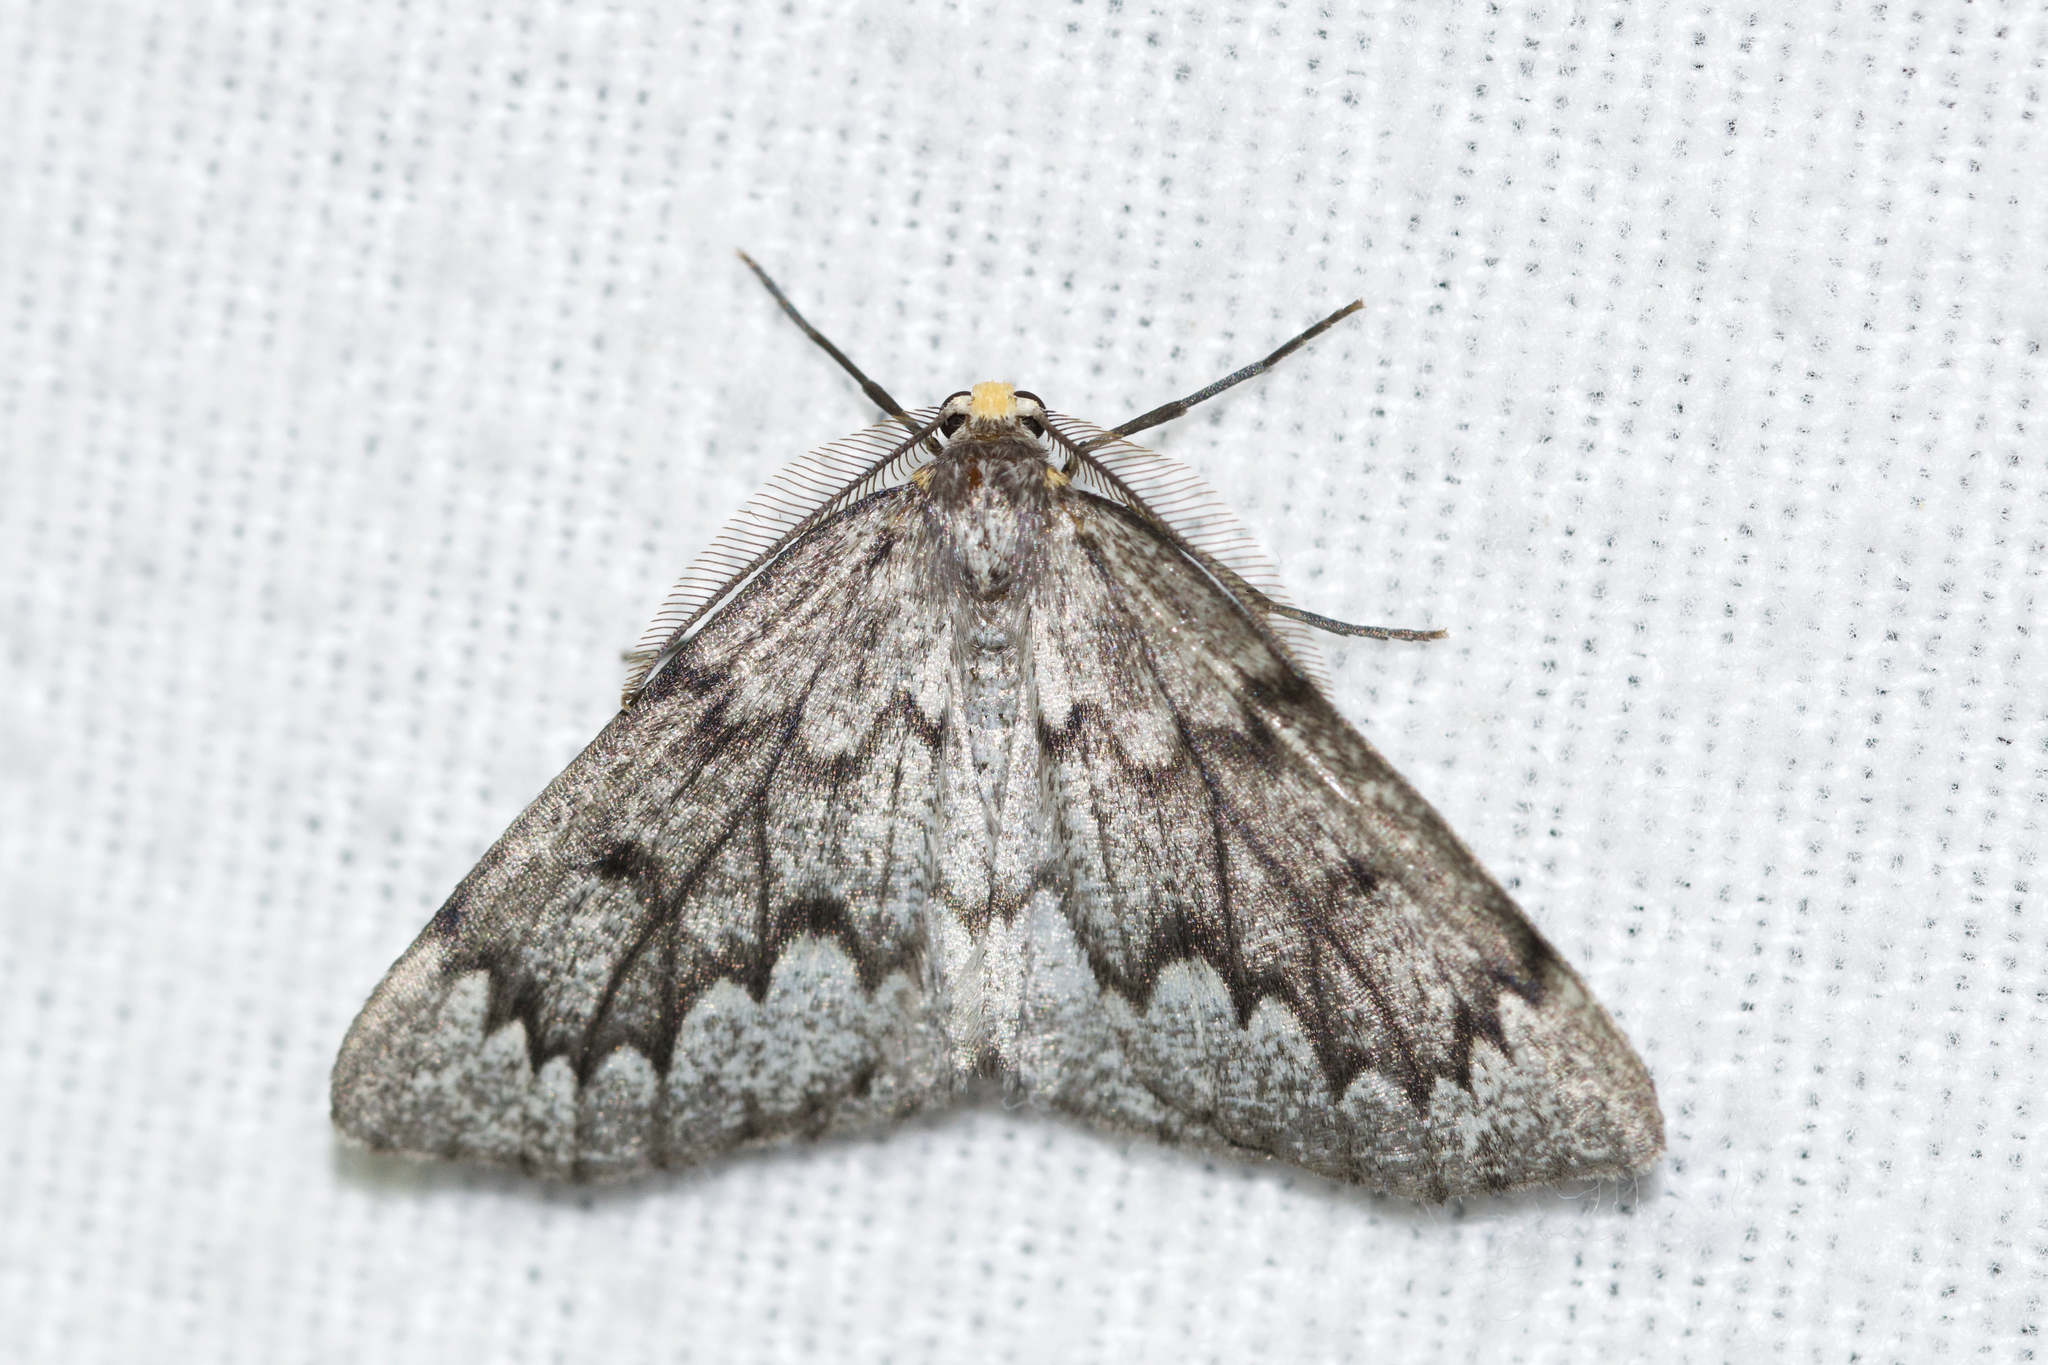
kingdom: Animalia
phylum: Arthropoda
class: Insecta
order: Lepidoptera
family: Geometridae
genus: Nepytia
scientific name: Nepytia canosaria
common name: False hemlock looper
